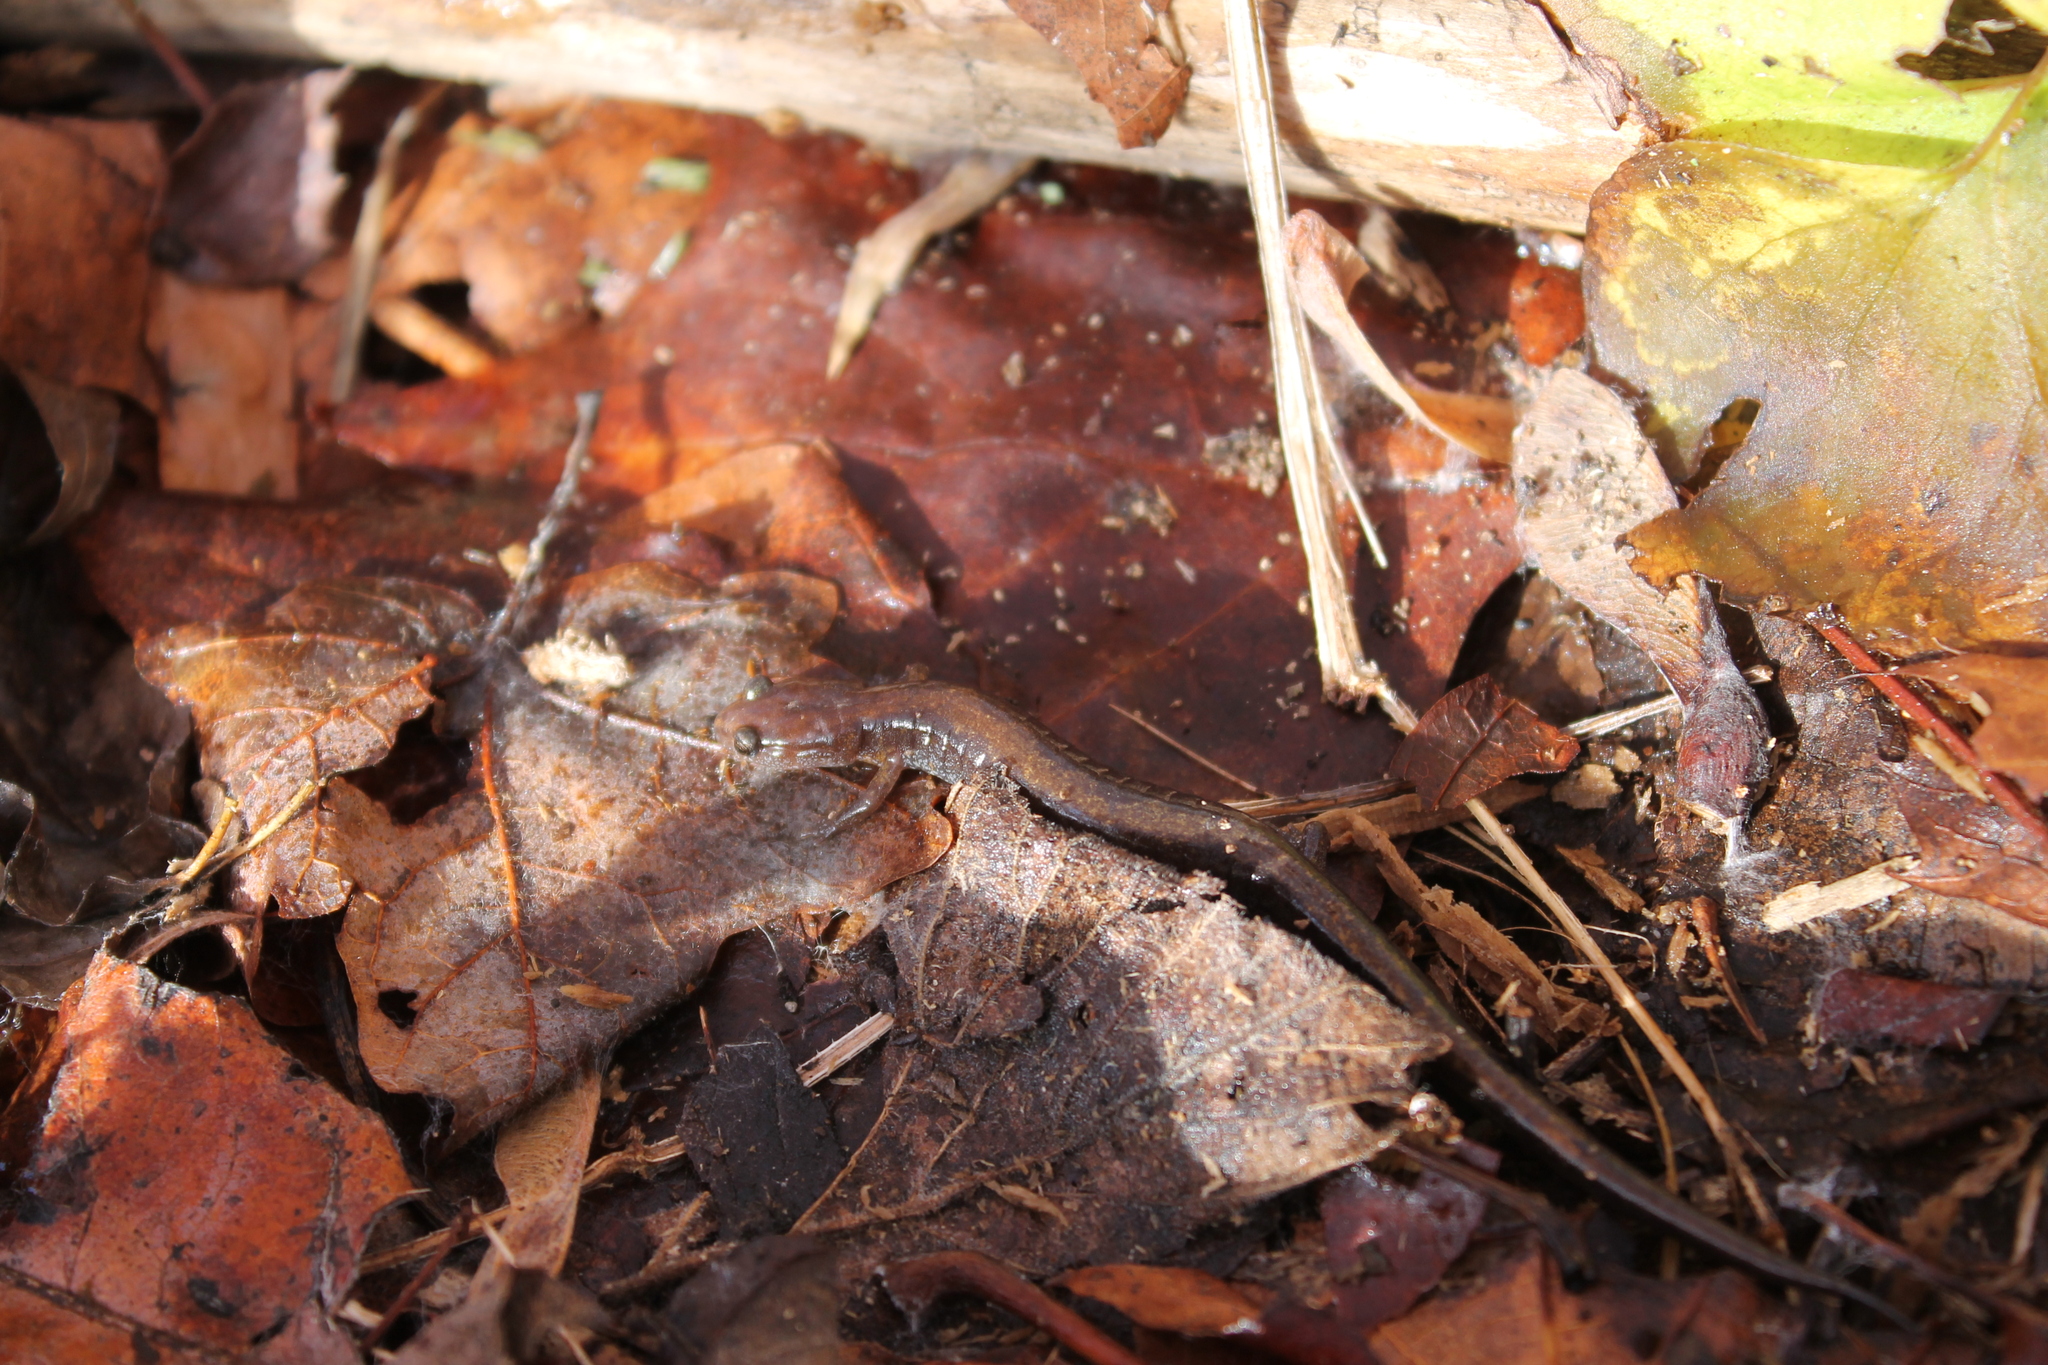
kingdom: Animalia
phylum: Chordata
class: Amphibia
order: Caudata
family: Plethodontidae
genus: Plethodon
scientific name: Plethodon dorsalis
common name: Northern zigzag salamander
